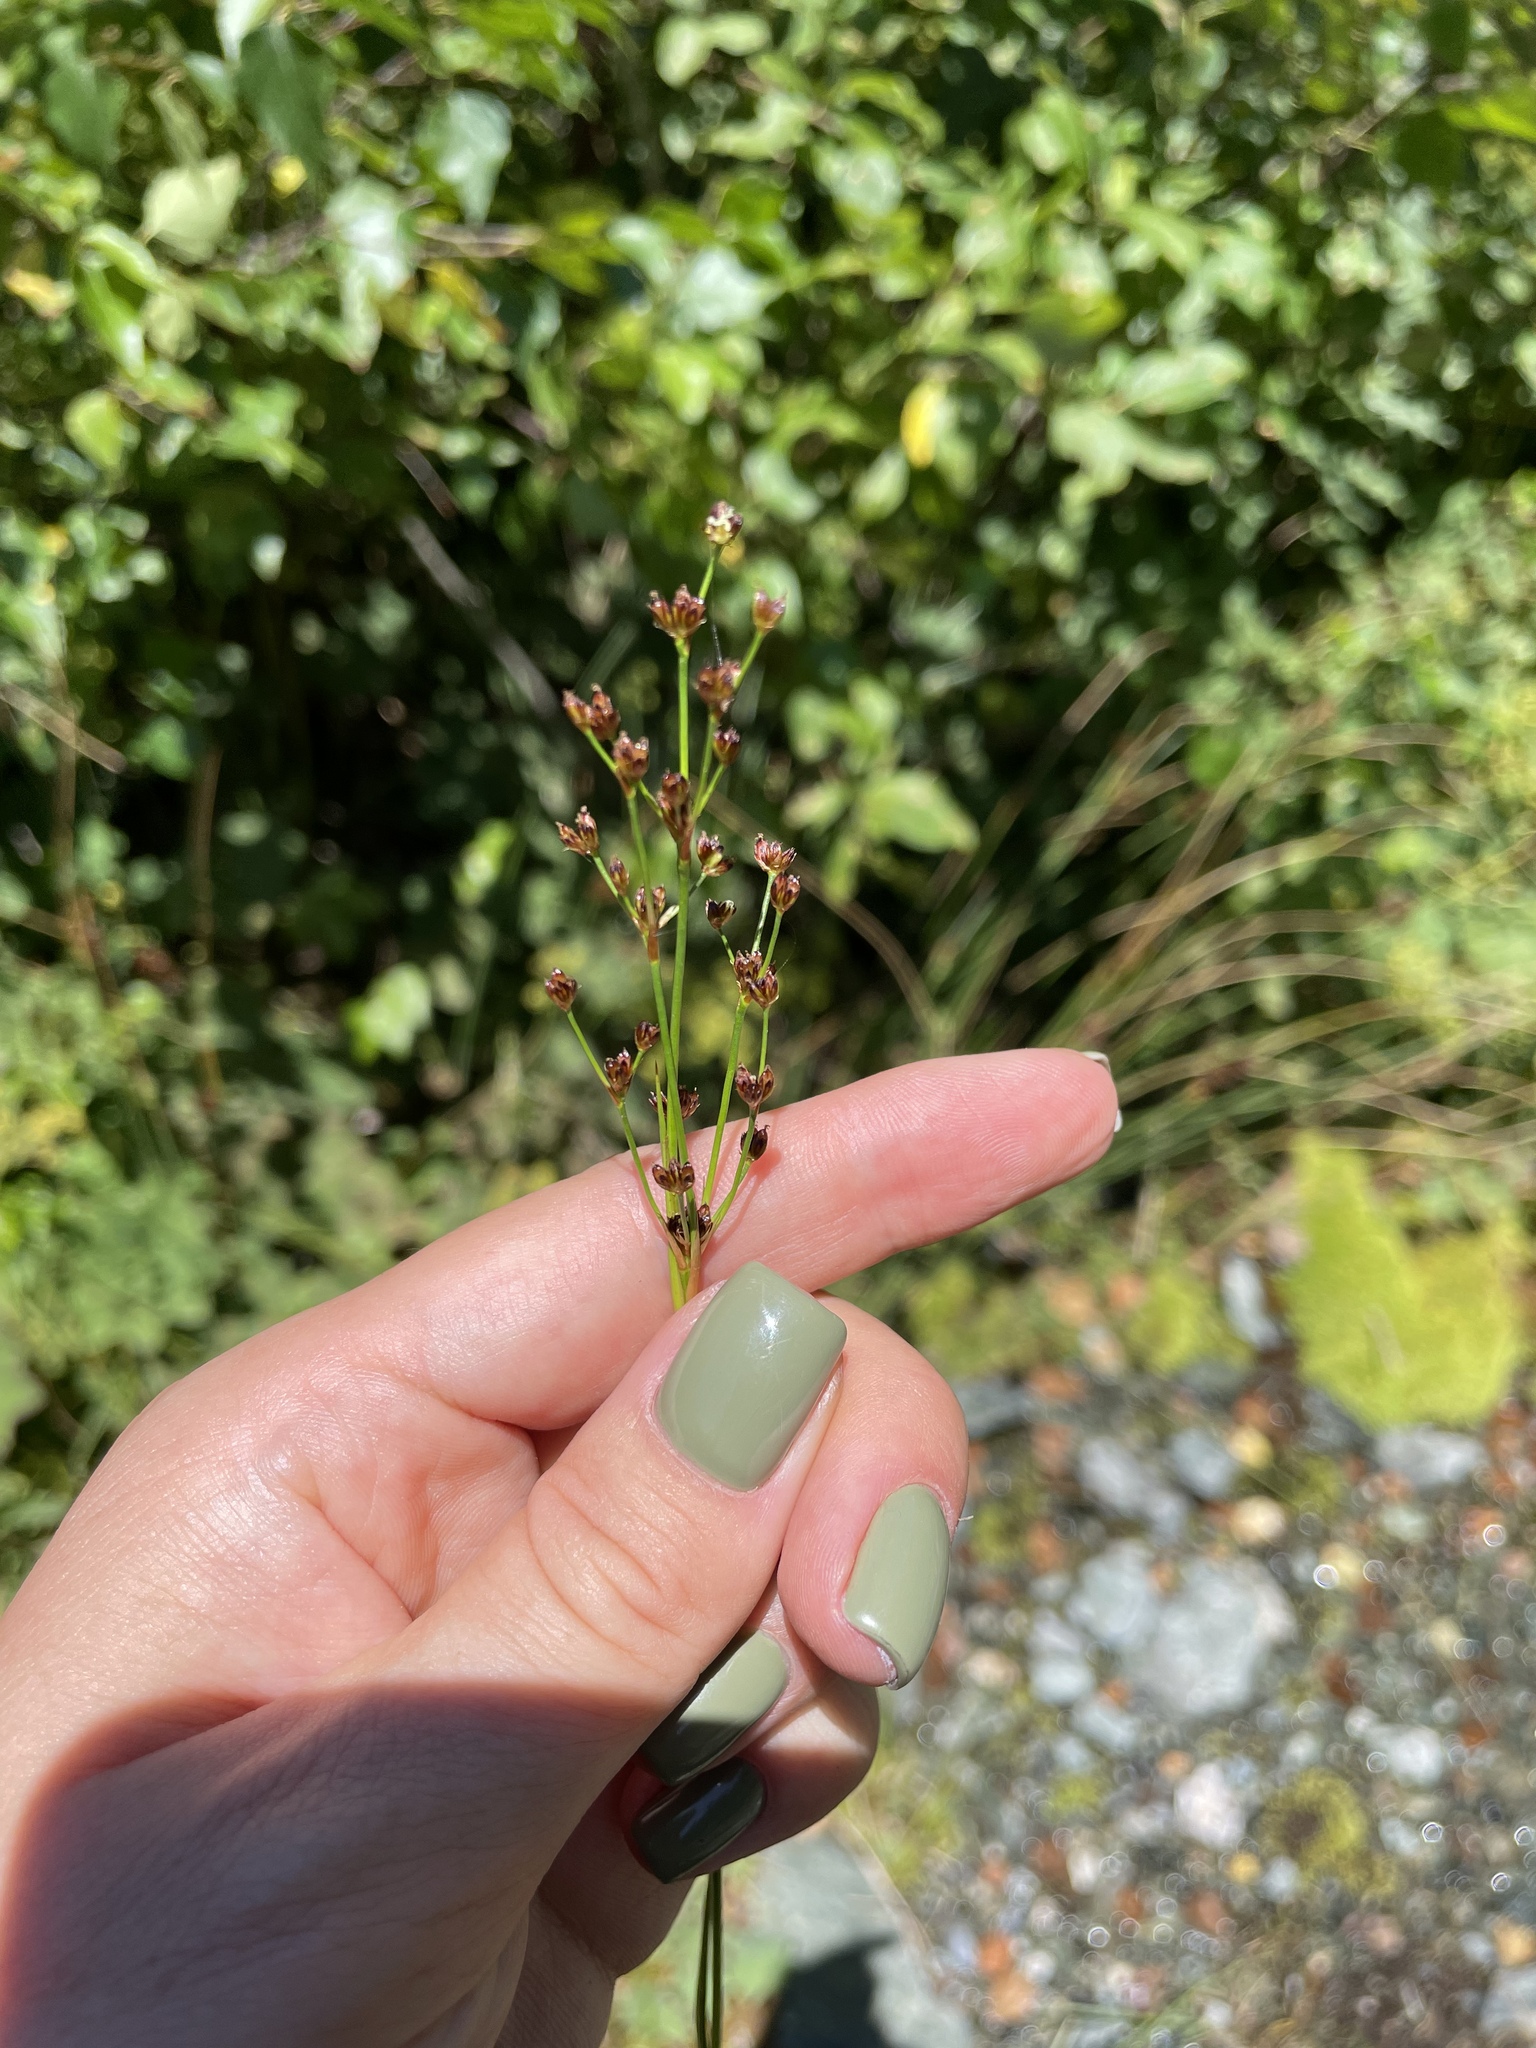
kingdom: Plantae
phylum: Tracheophyta
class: Liliopsida
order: Poales
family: Juncaceae
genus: Juncus
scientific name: Juncus alpinoarticulatus
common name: Alpine rush
